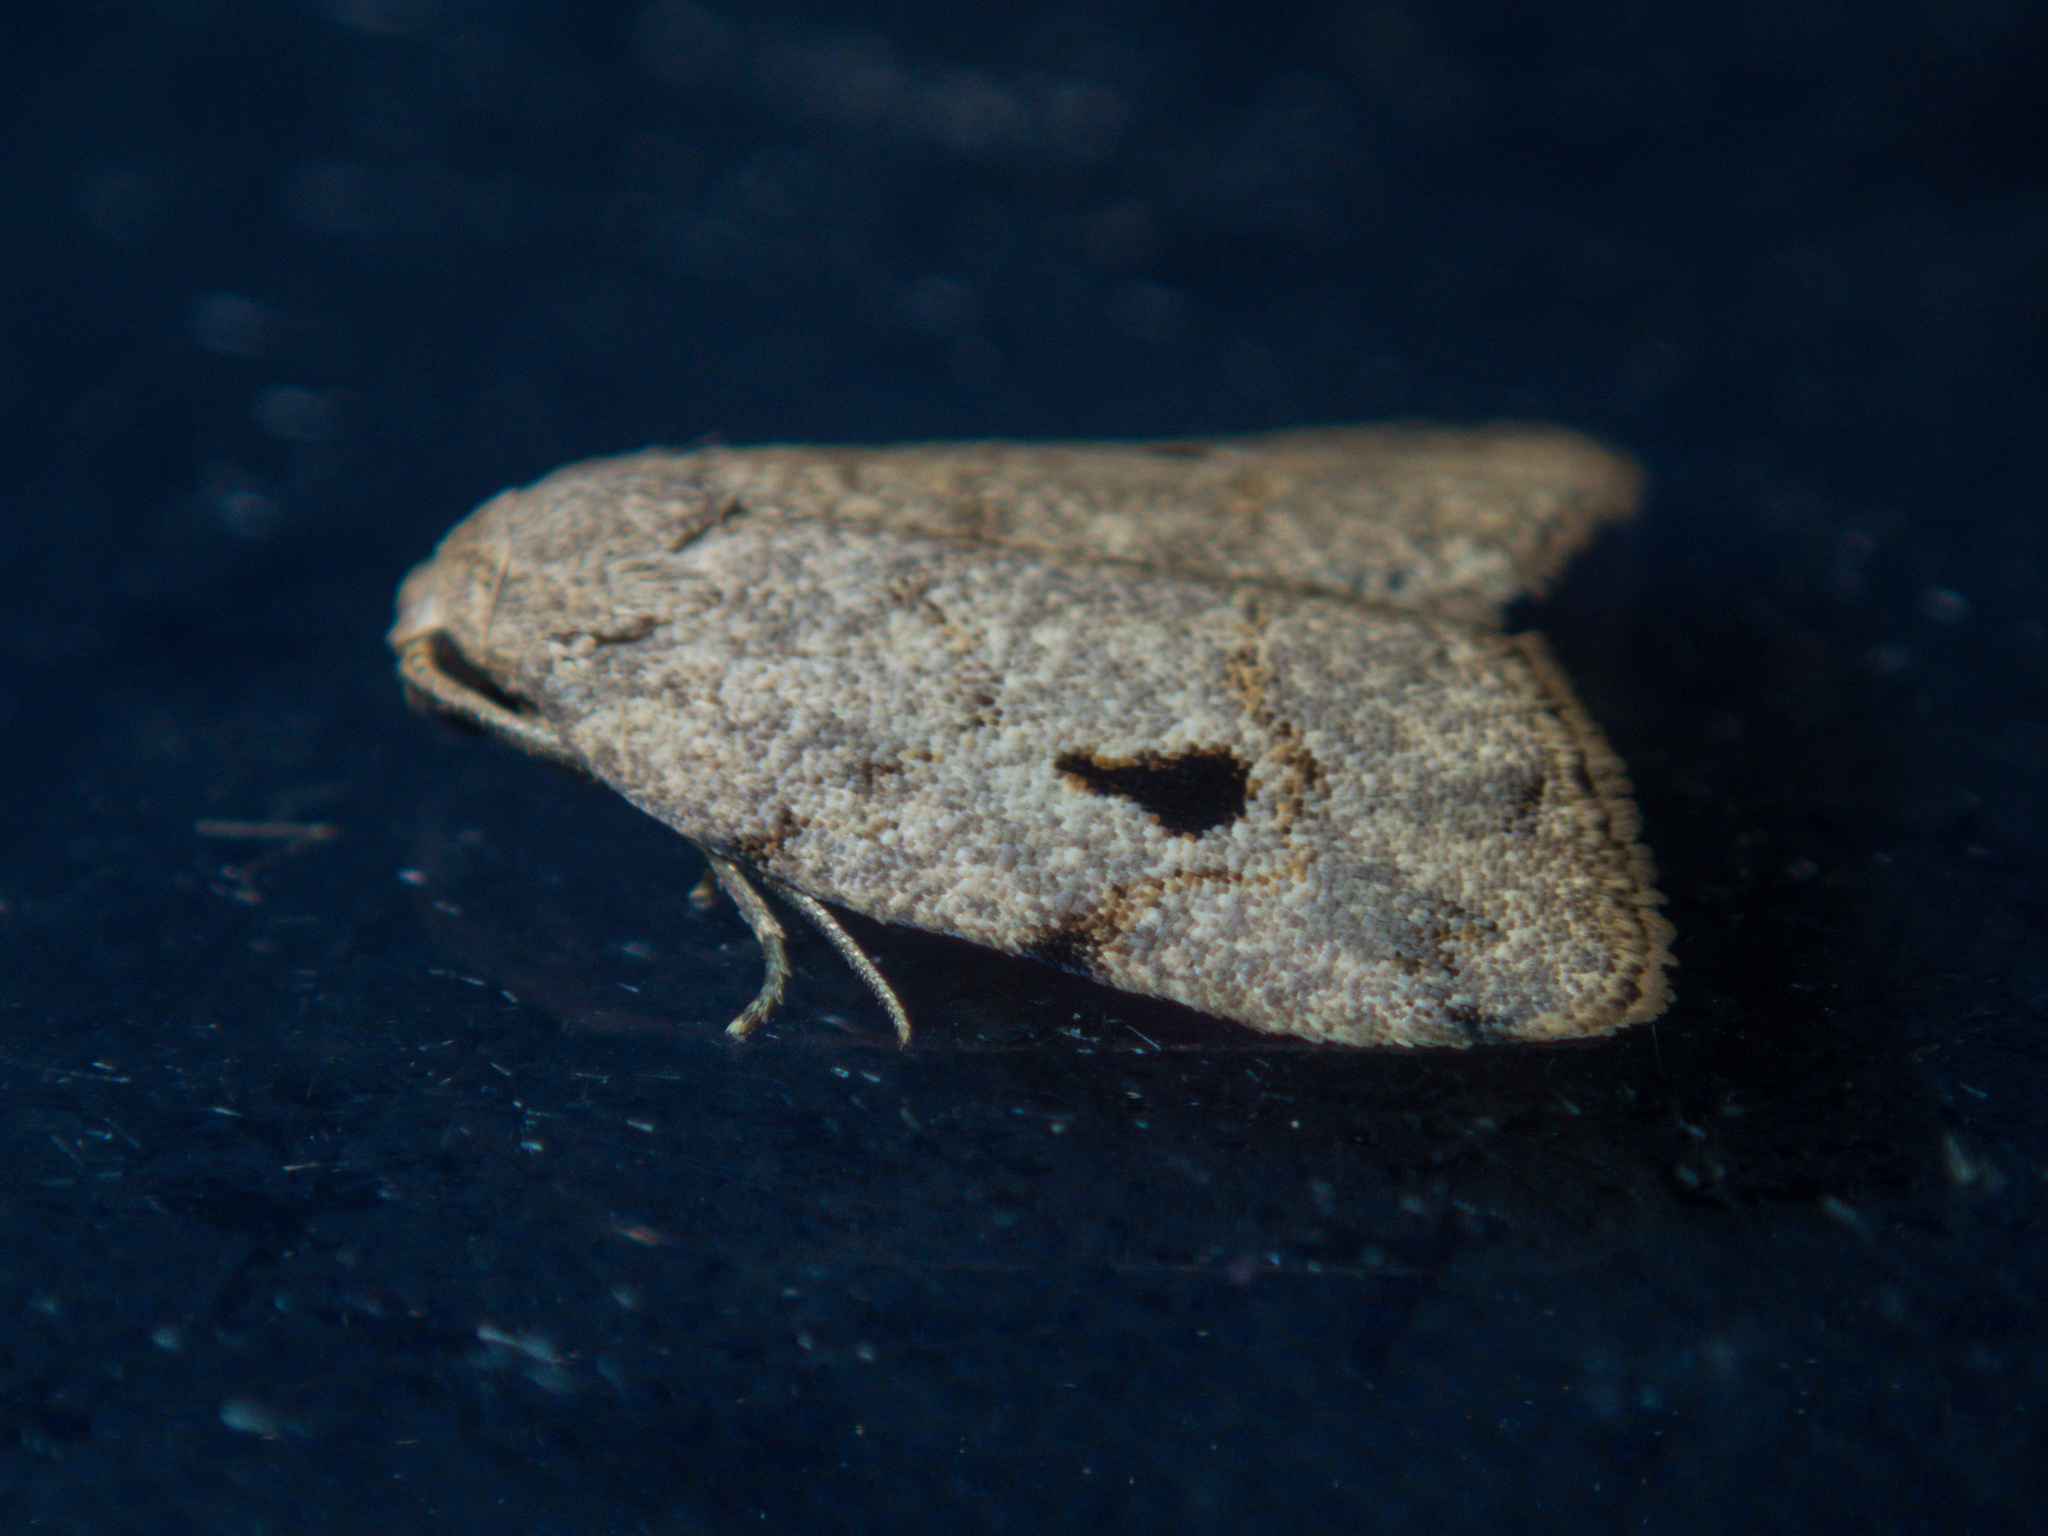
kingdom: Animalia
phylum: Arthropoda
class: Insecta
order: Lepidoptera
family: Erebidae
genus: Eugoa
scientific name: Eugoa nata
